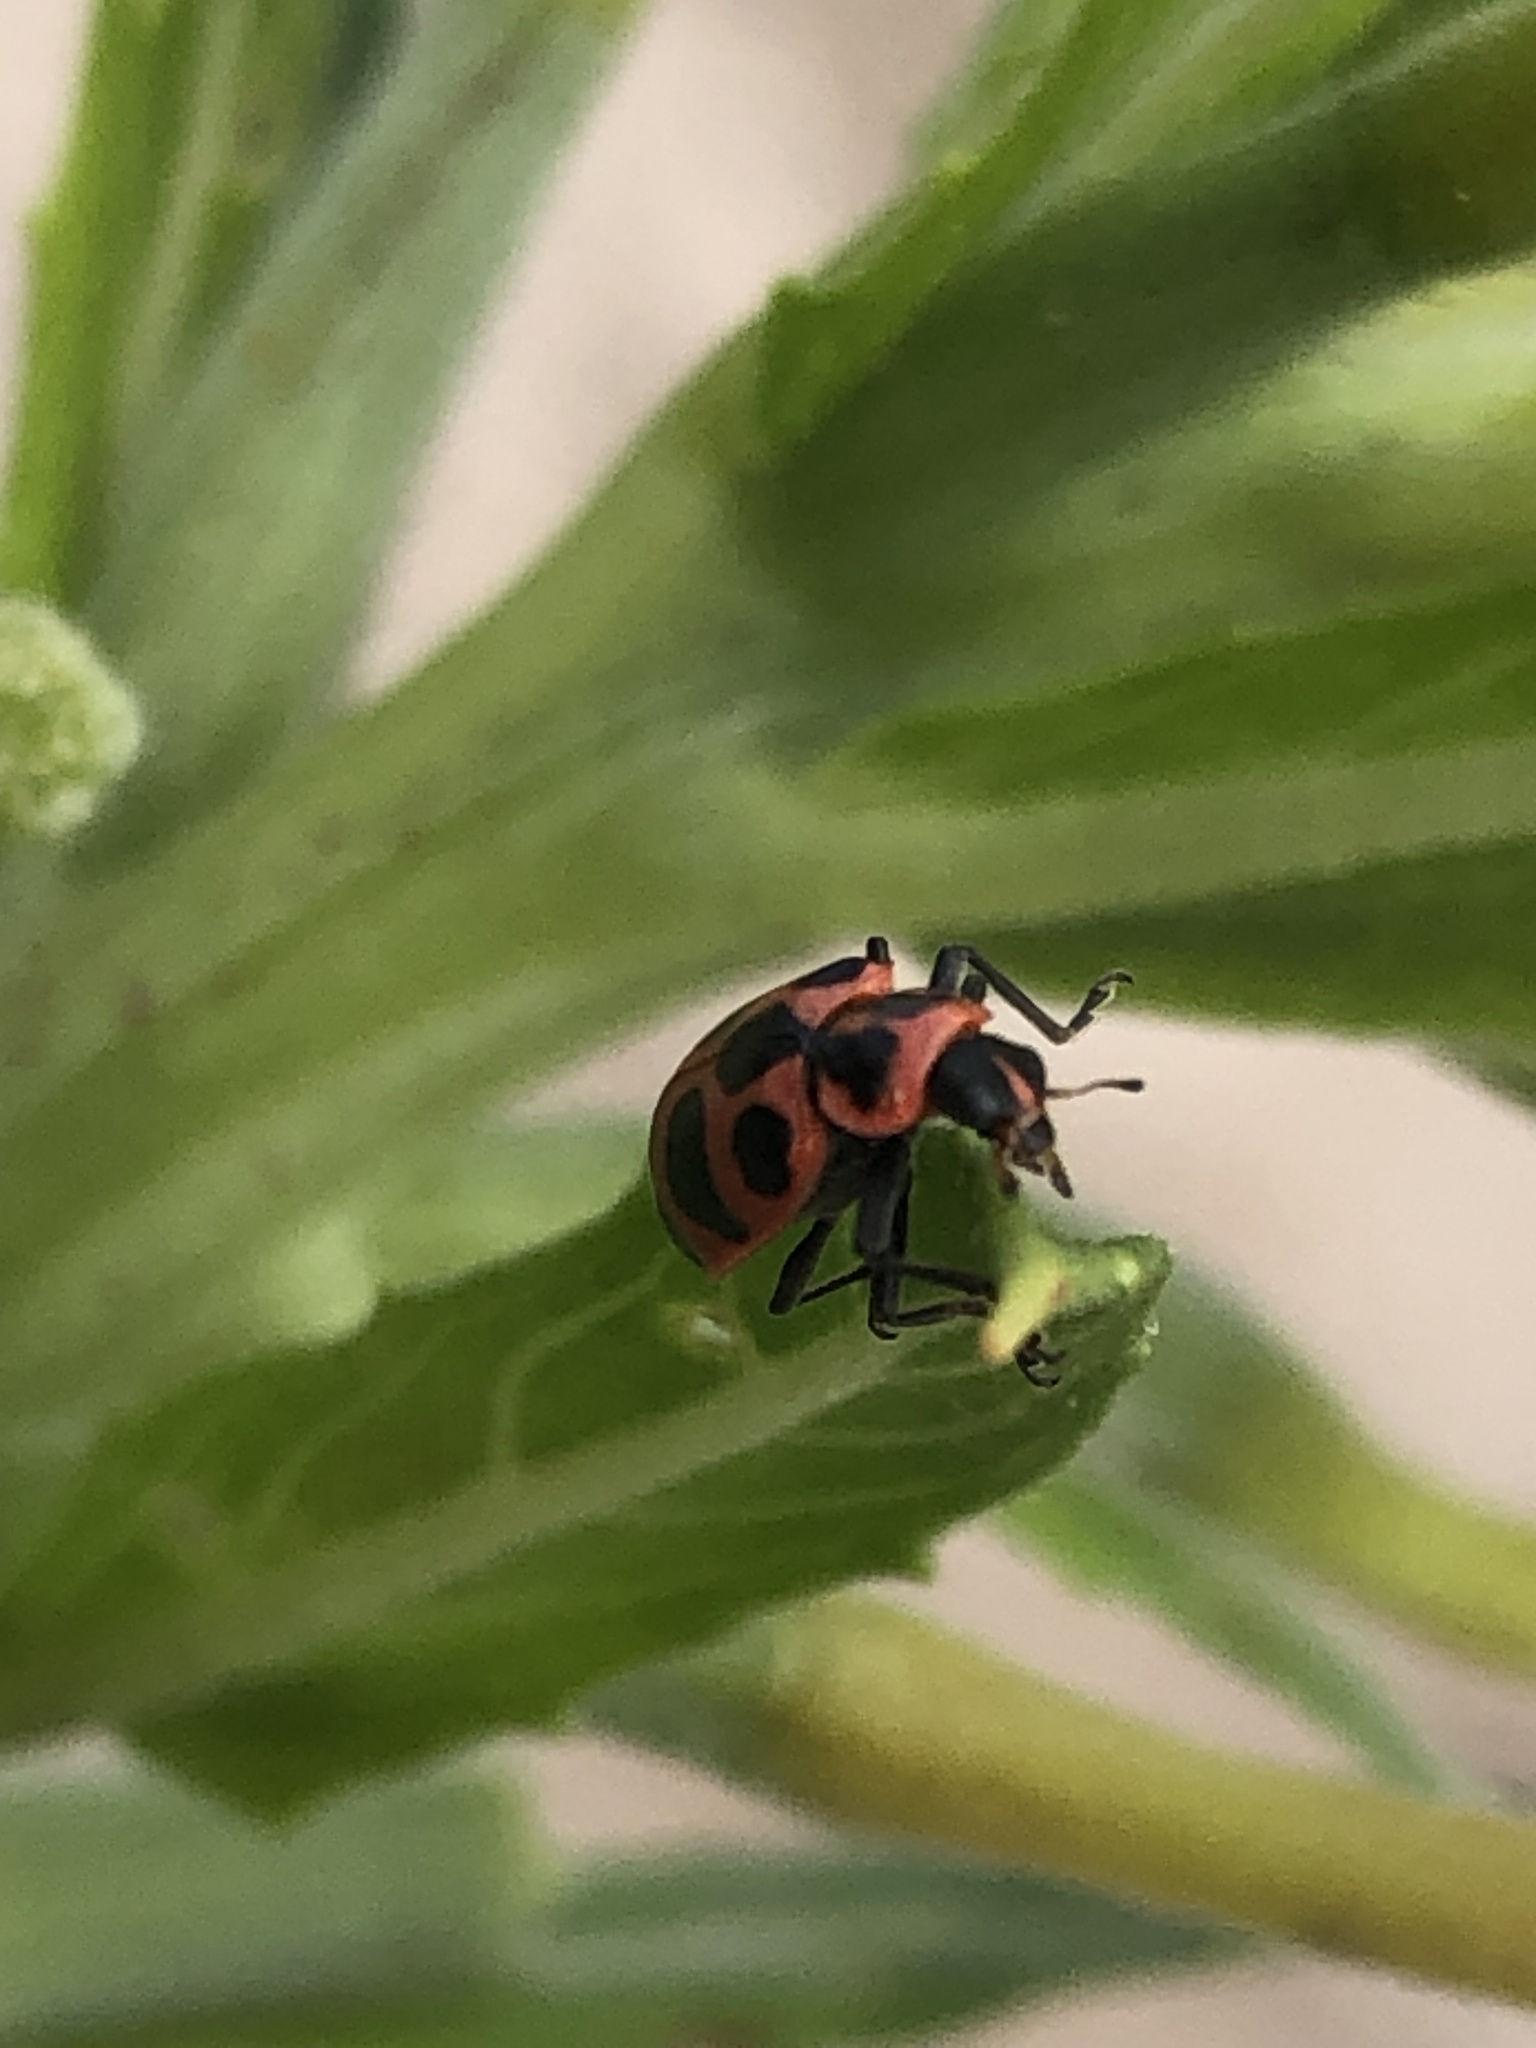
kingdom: Animalia
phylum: Arthropoda
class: Insecta
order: Coleoptera
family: Coccinellidae
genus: Coleomegilla
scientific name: Coleomegilla maculata
